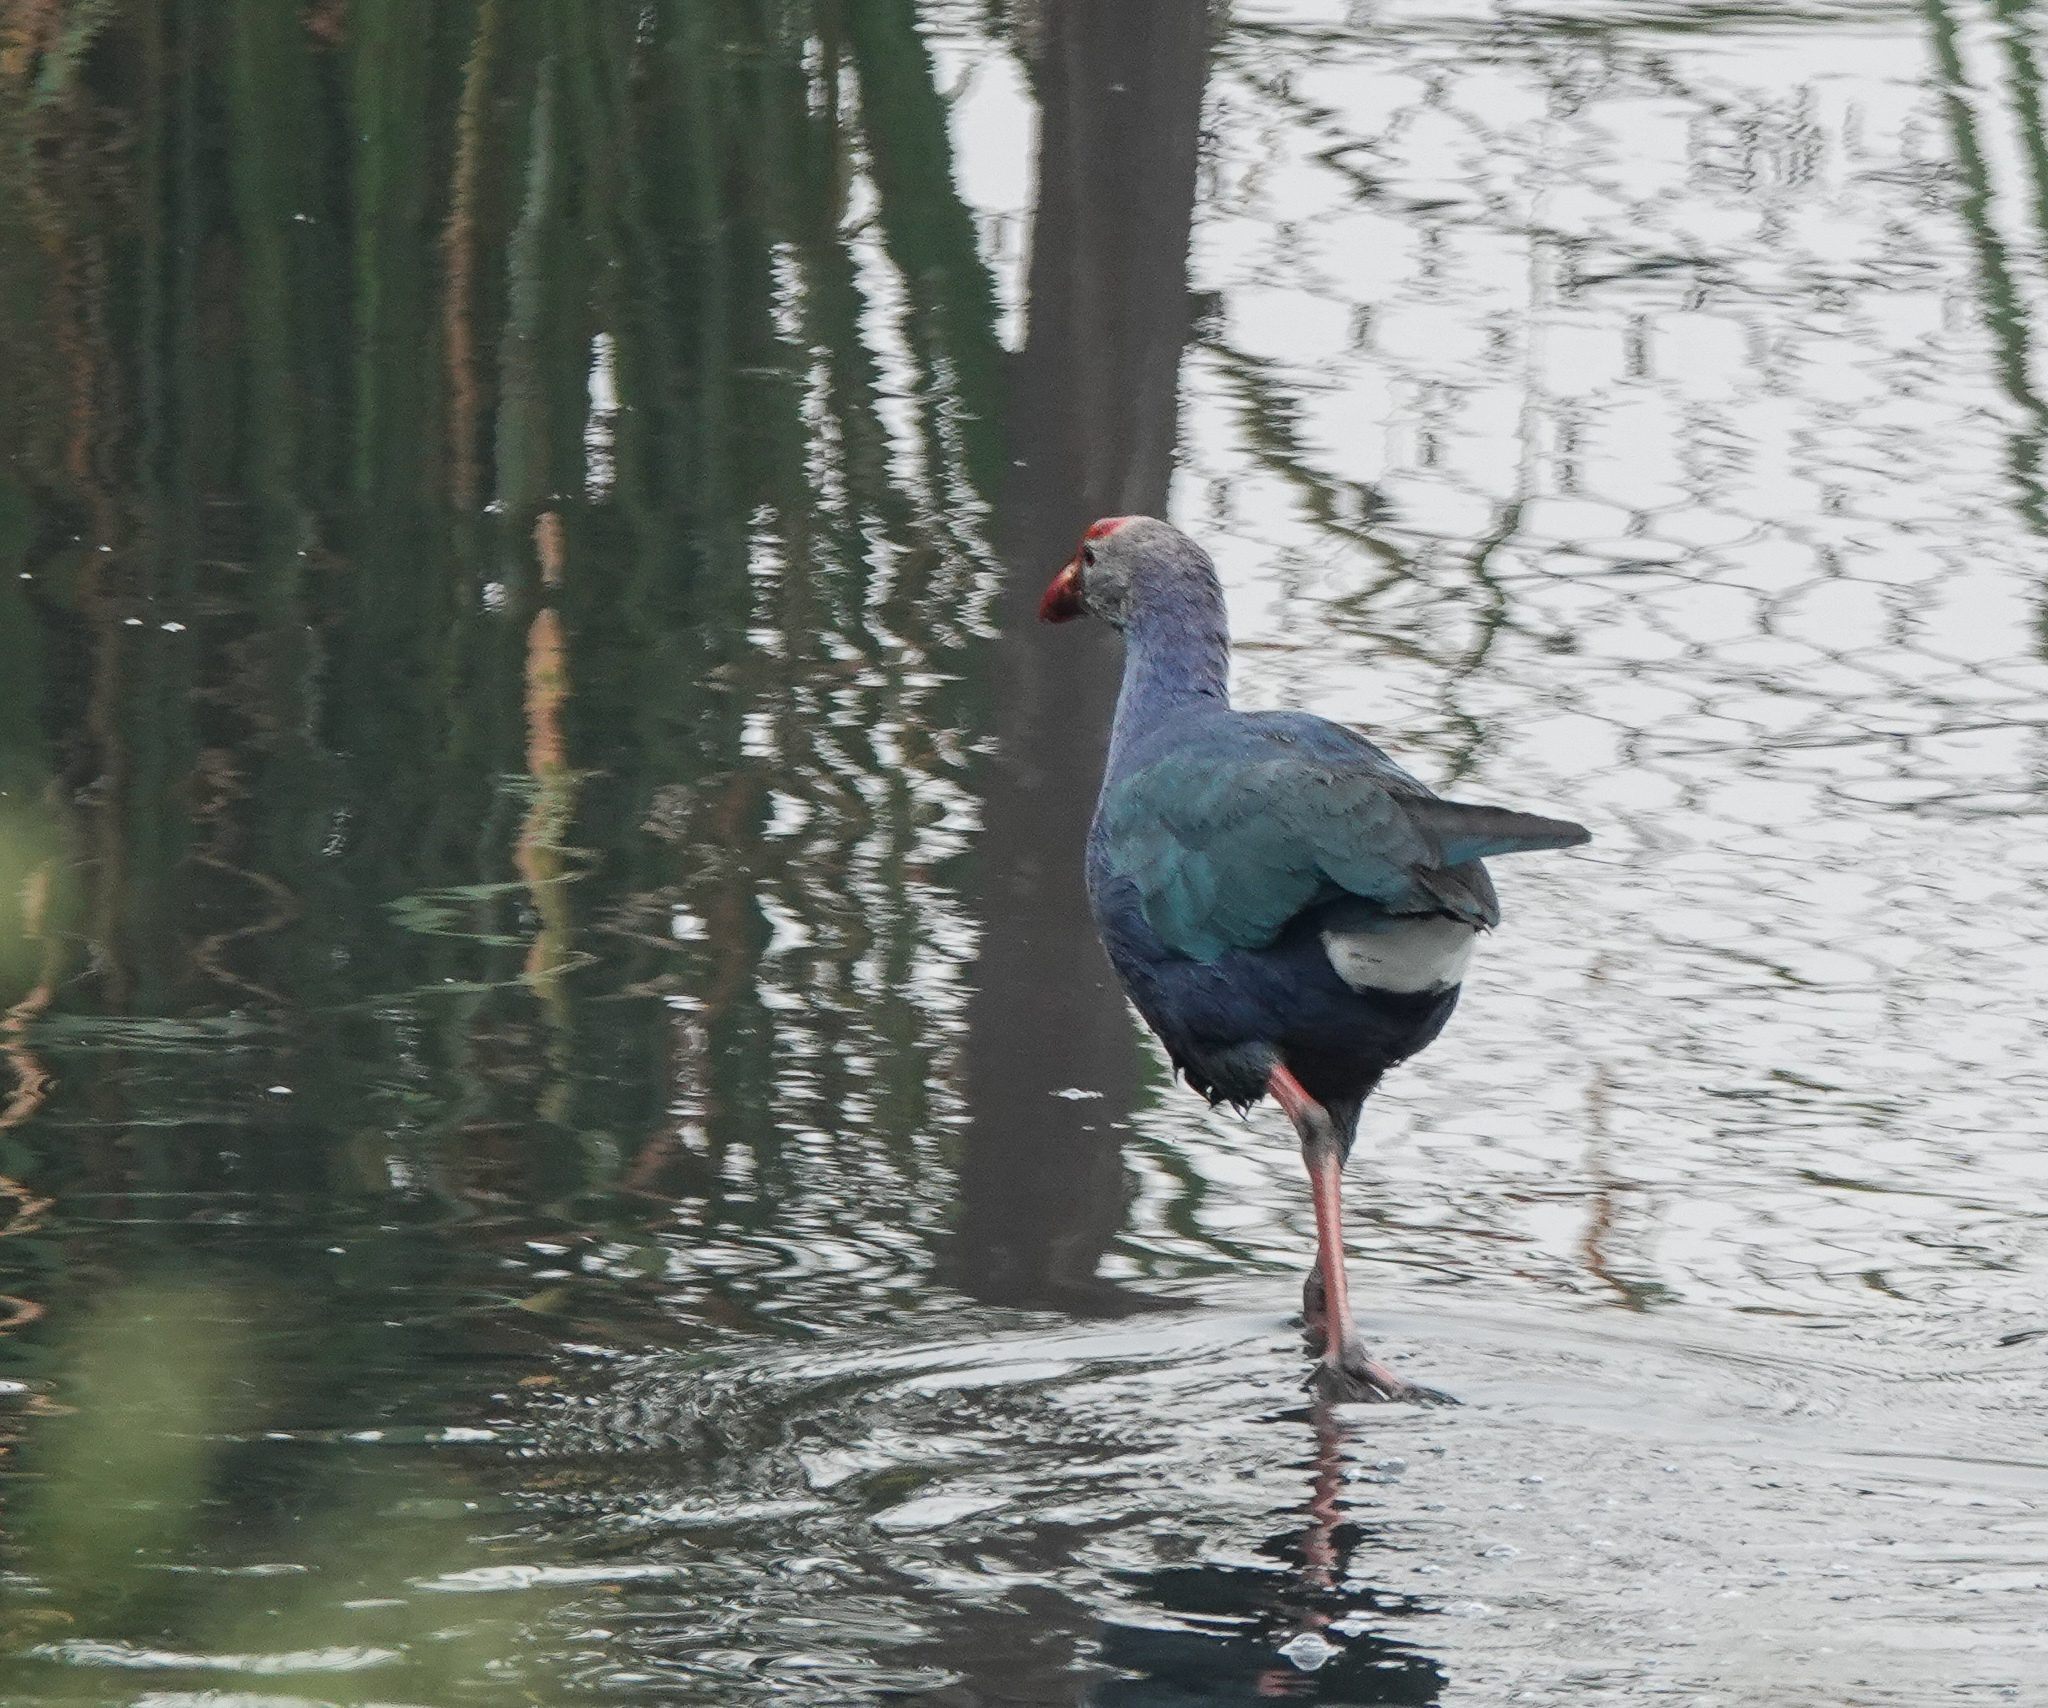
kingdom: Animalia
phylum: Chordata
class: Aves
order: Gruiformes
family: Rallidae
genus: Porphyrio
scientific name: Porphyrio porphyrio
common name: Purple swamphen
